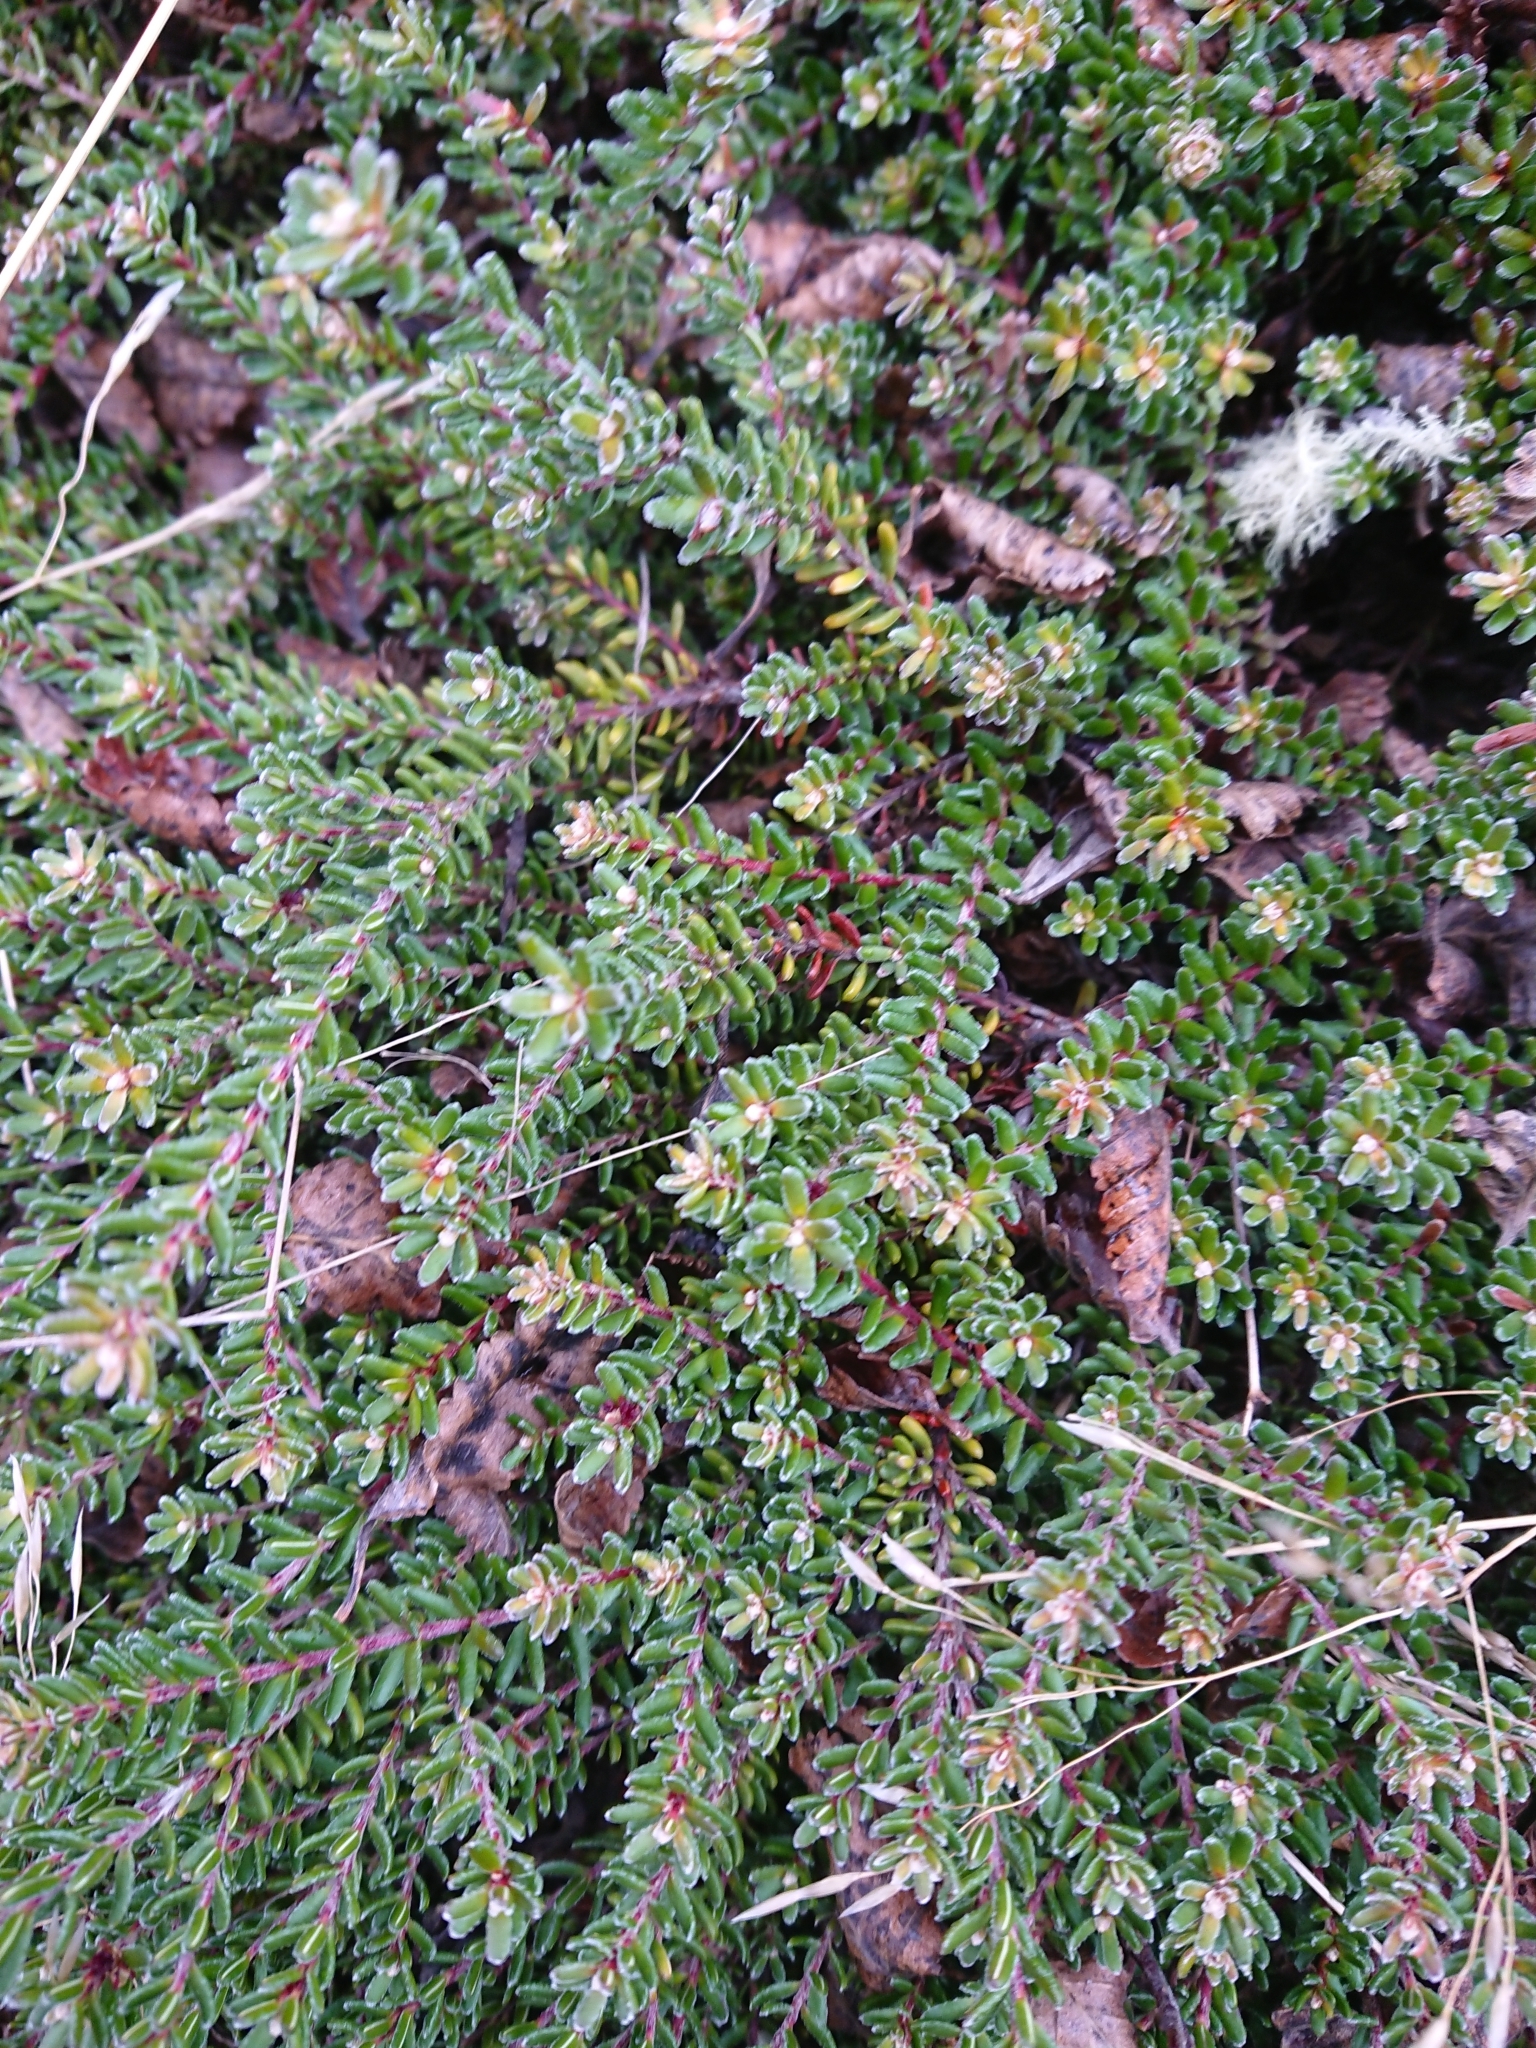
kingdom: Plantae
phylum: Tracheophyta
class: Magnoliopsida
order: Ericales
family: Ericaceae
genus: Empetrum
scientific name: Empetrum rubrum
